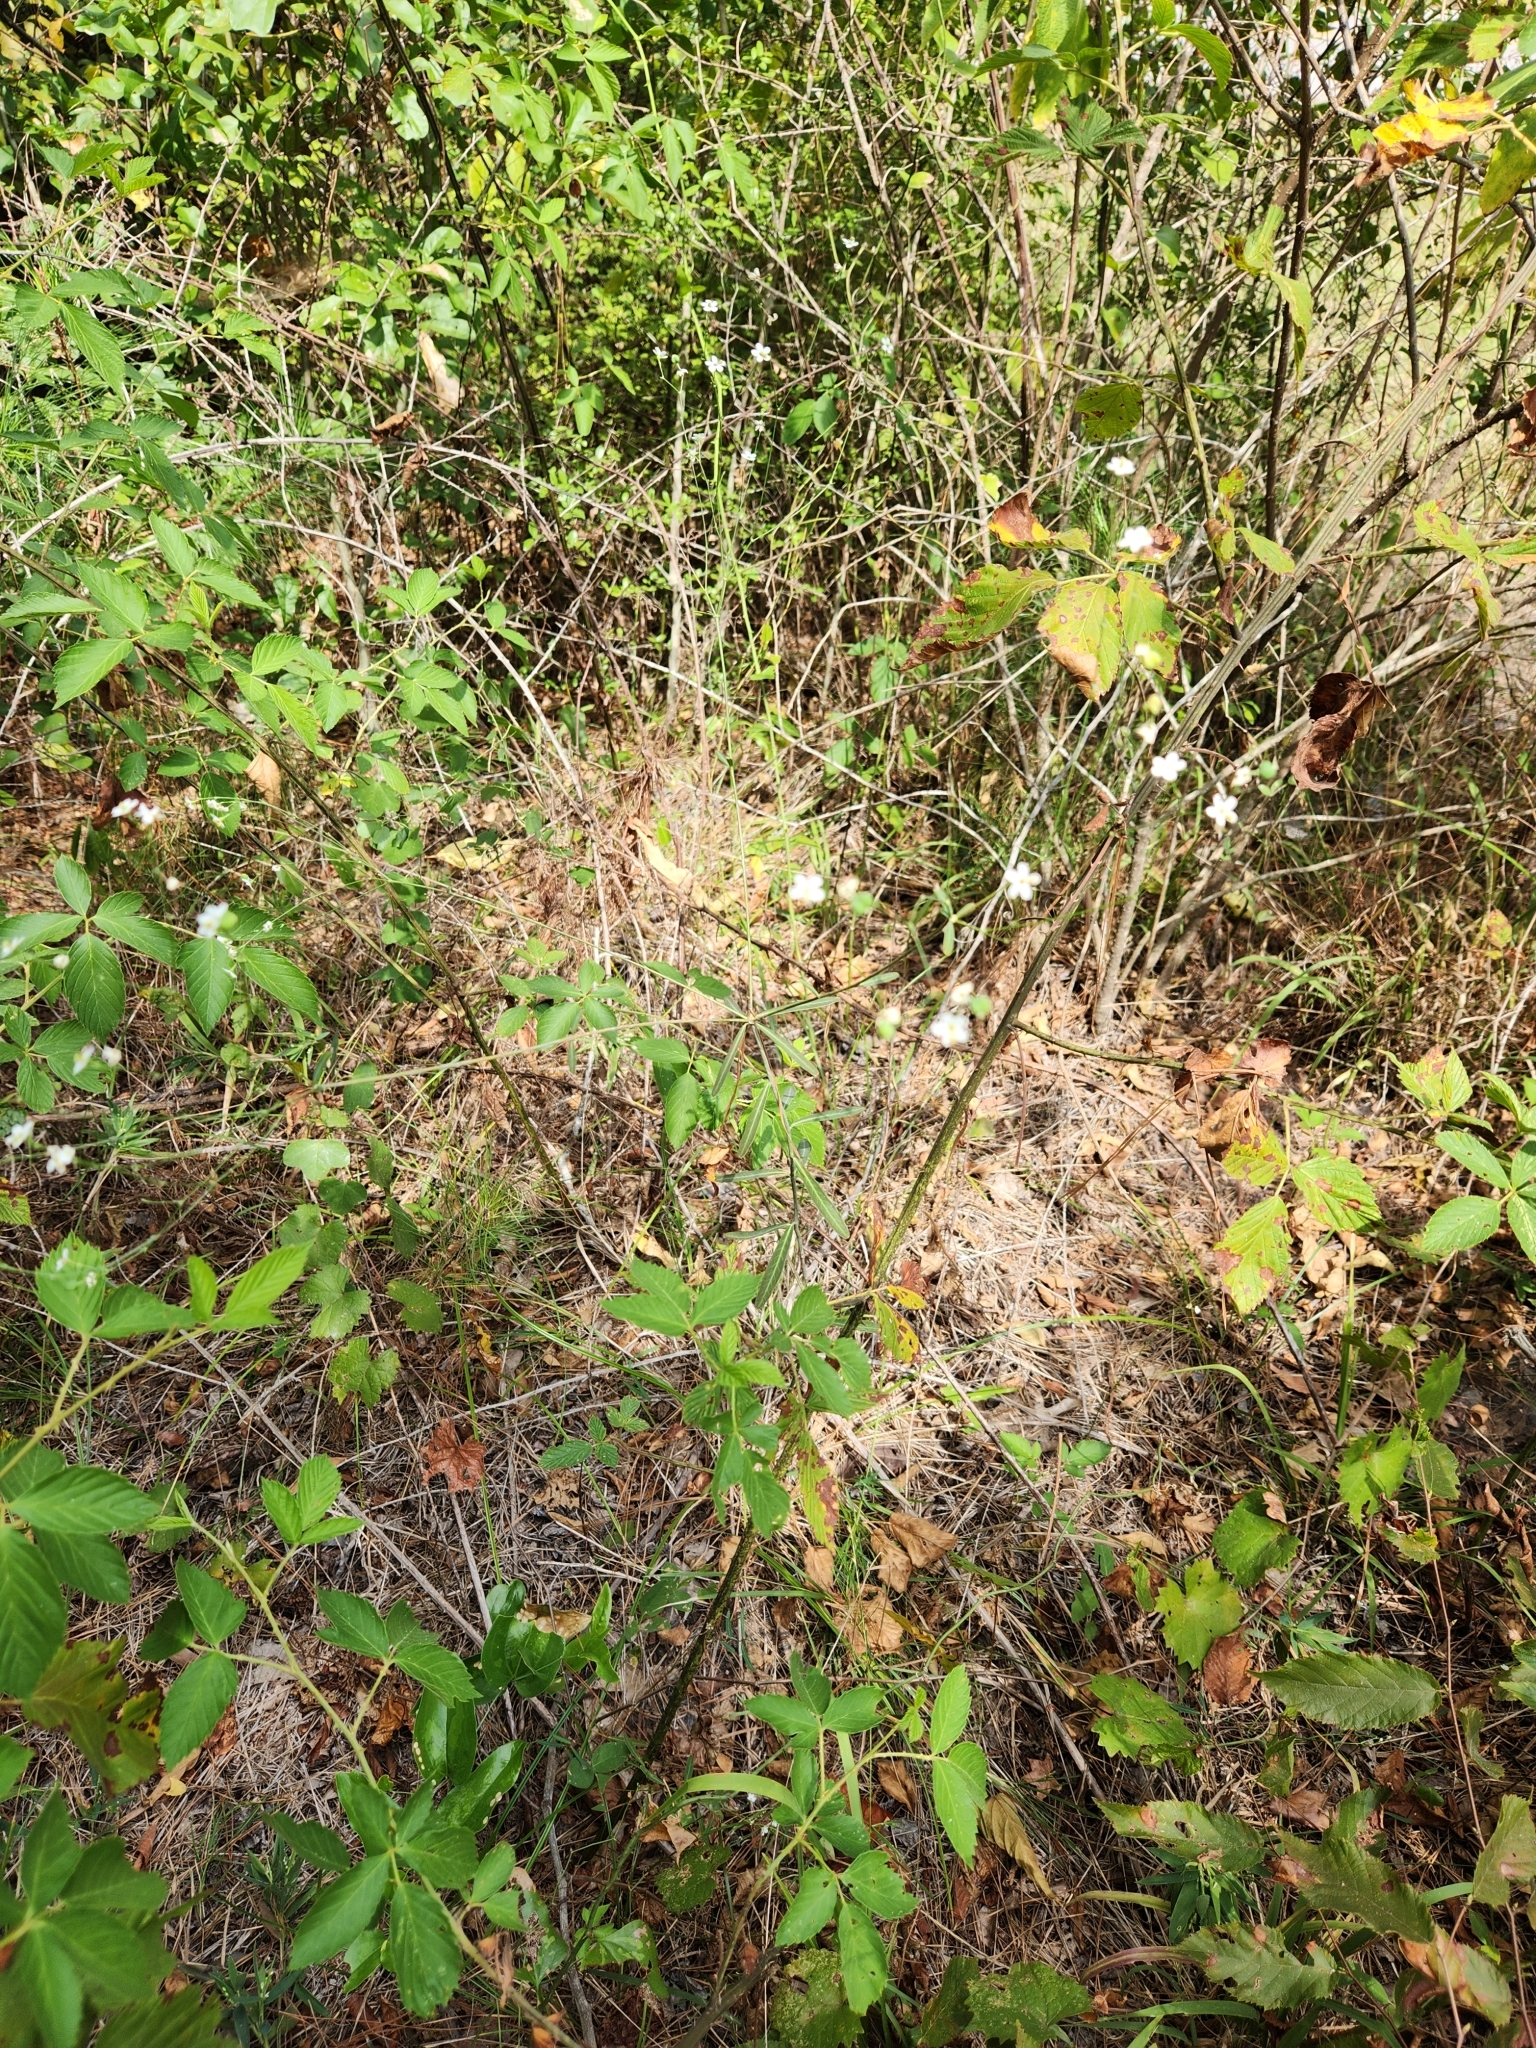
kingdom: Plantae
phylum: Tracheophyta
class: Magnoliopsida
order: Malpighiales
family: Euphorbiaceae
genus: Euphorbia
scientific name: Euphorbia corollata
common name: Flowering spurge
